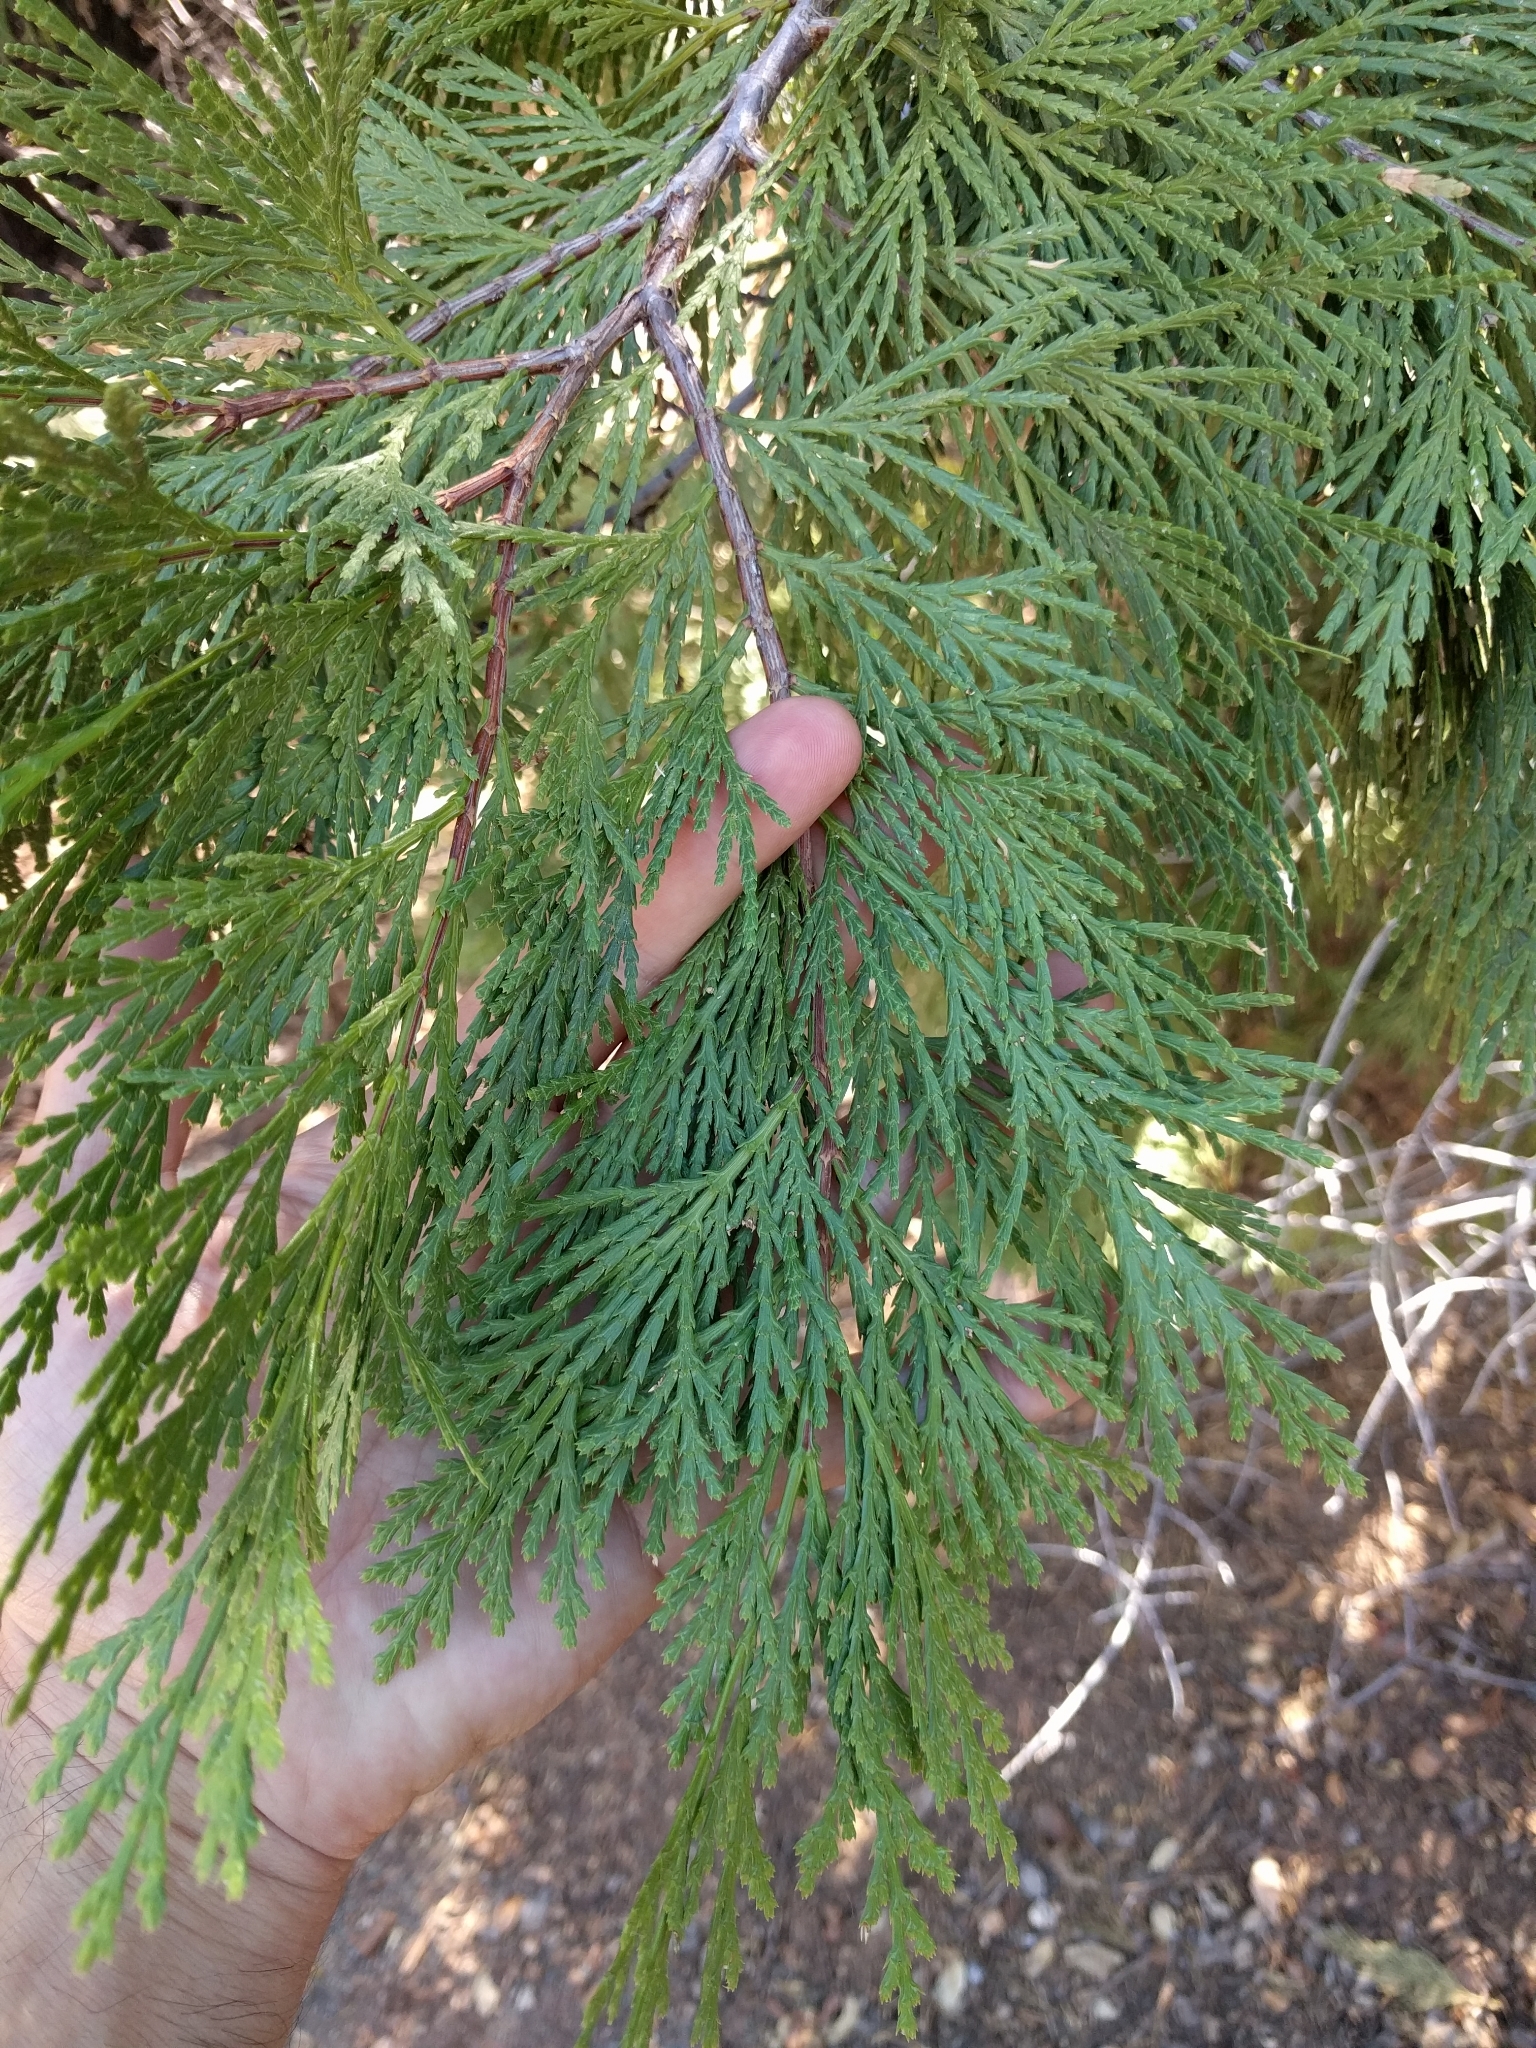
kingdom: Plantae
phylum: Tracheophyta
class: Pinopsida
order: Pinales
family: Cupressaceae
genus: Calocedrus
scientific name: Calocedrus decurrens
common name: Californian incense-cedar
